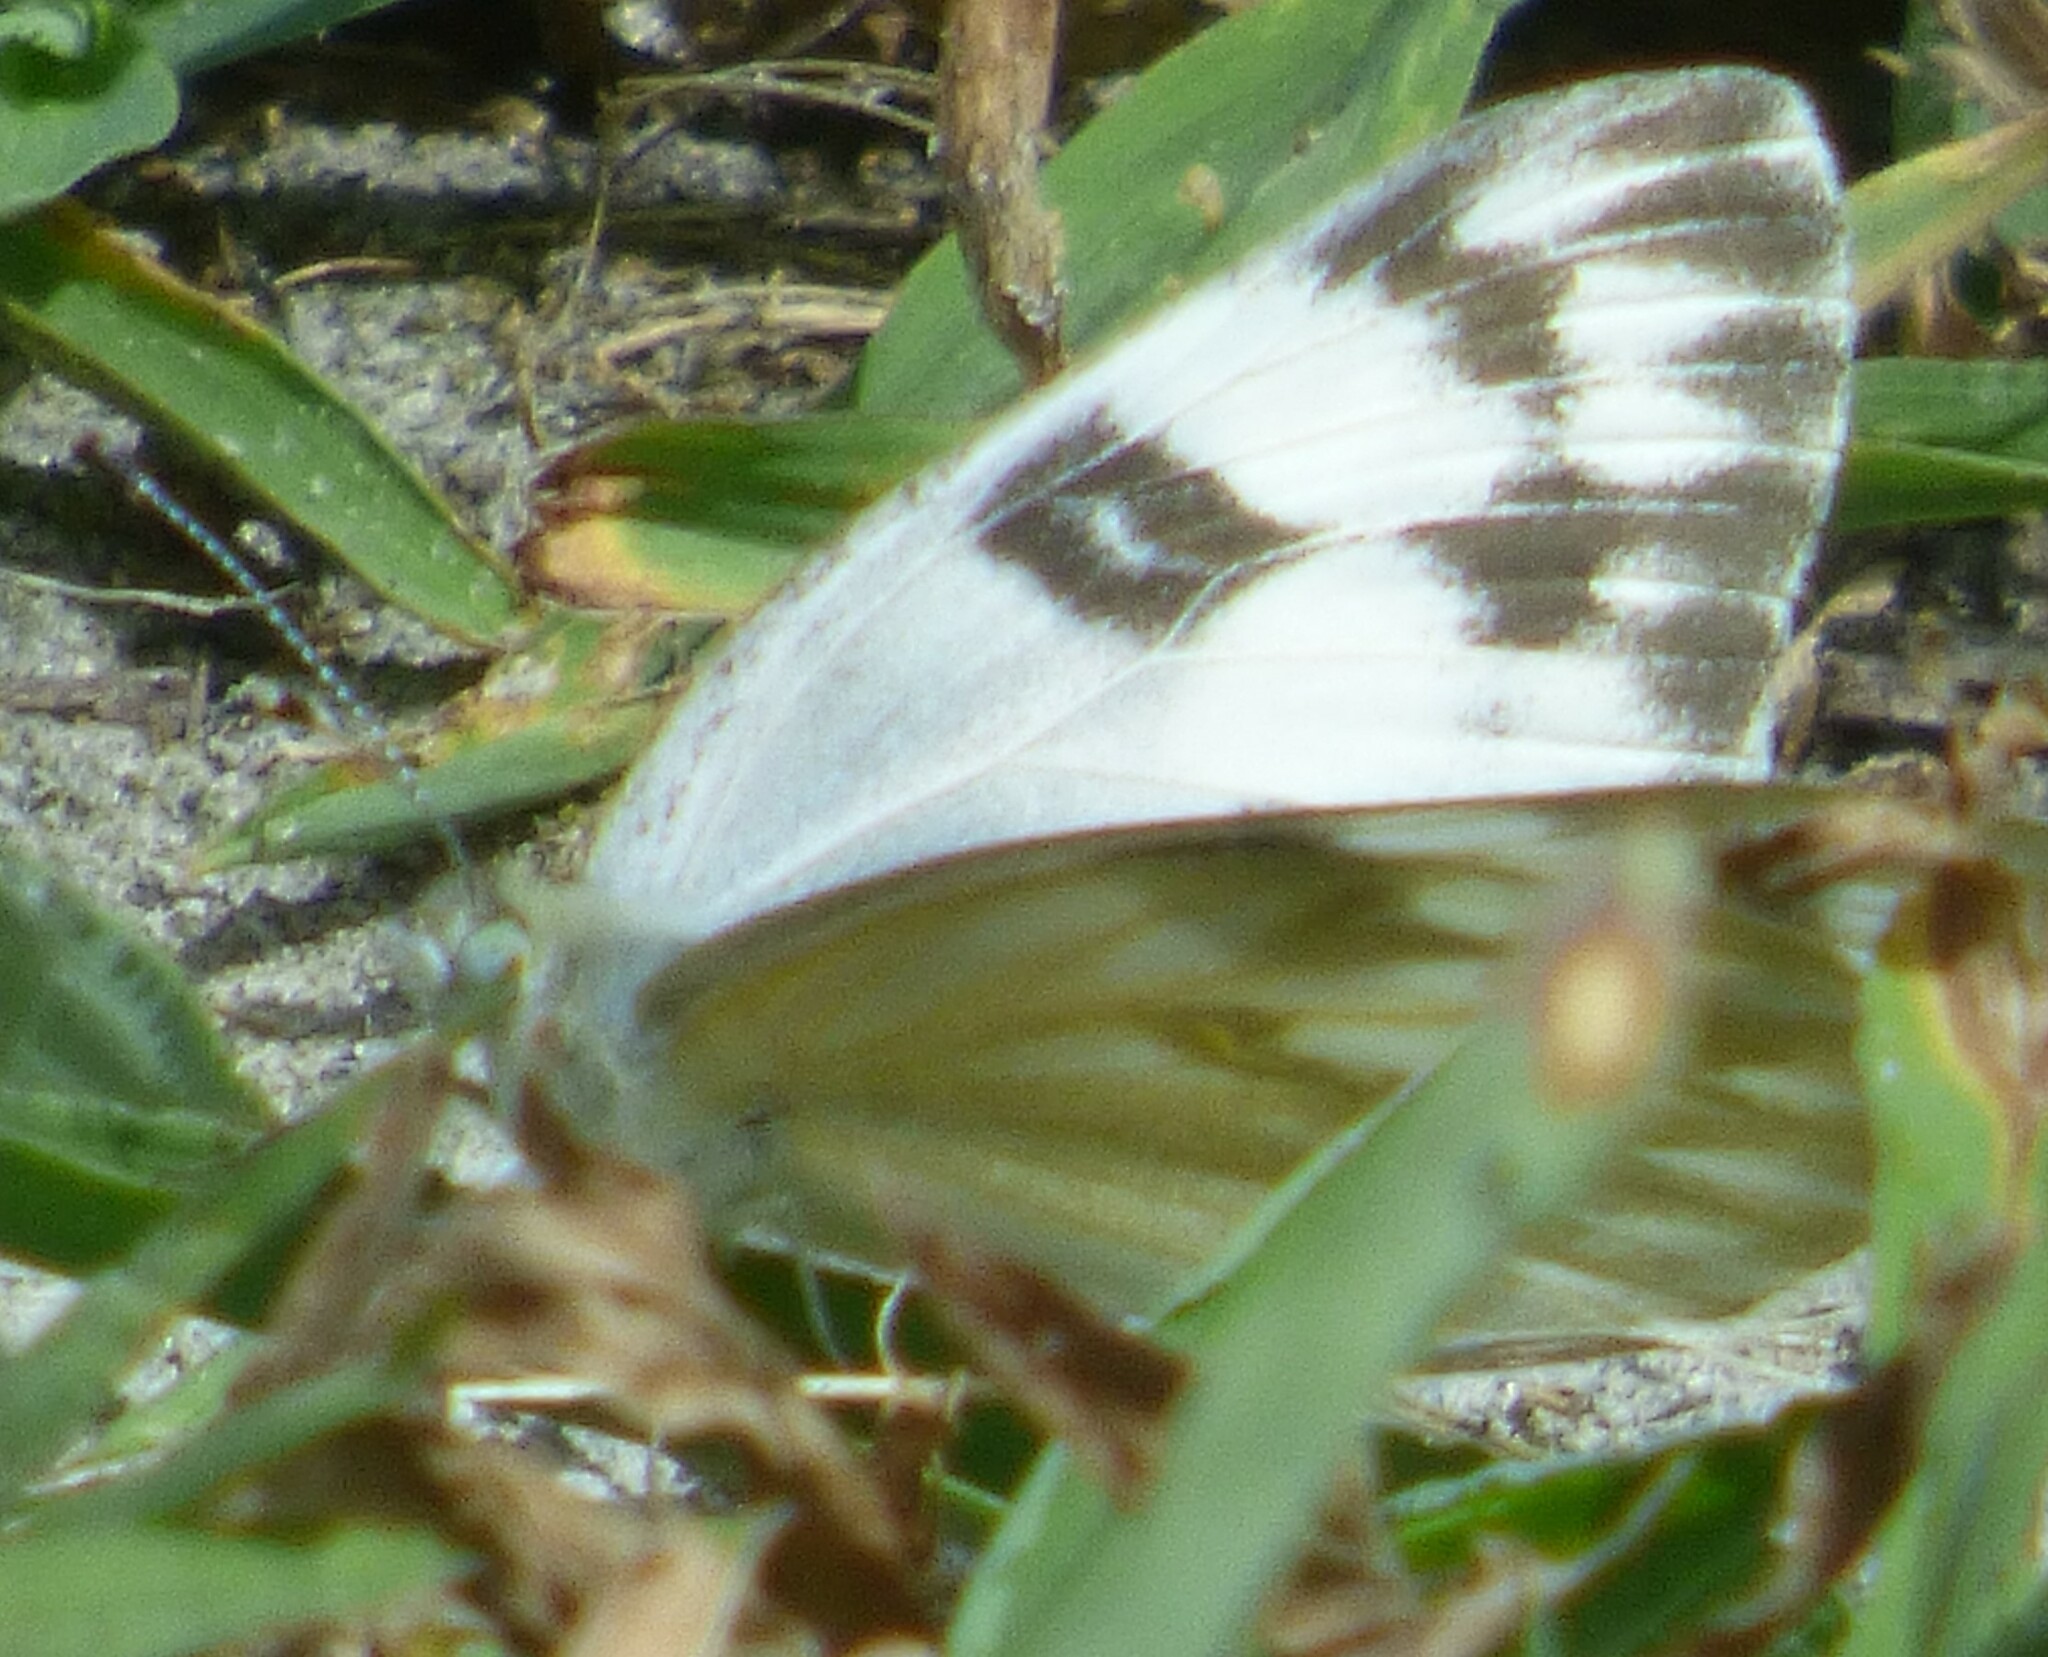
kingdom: Animalia
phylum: Arthropoda
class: Insecta
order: Lepidoptera
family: Pieridae
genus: Pontia
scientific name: Pontia protodice
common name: Checkered white
